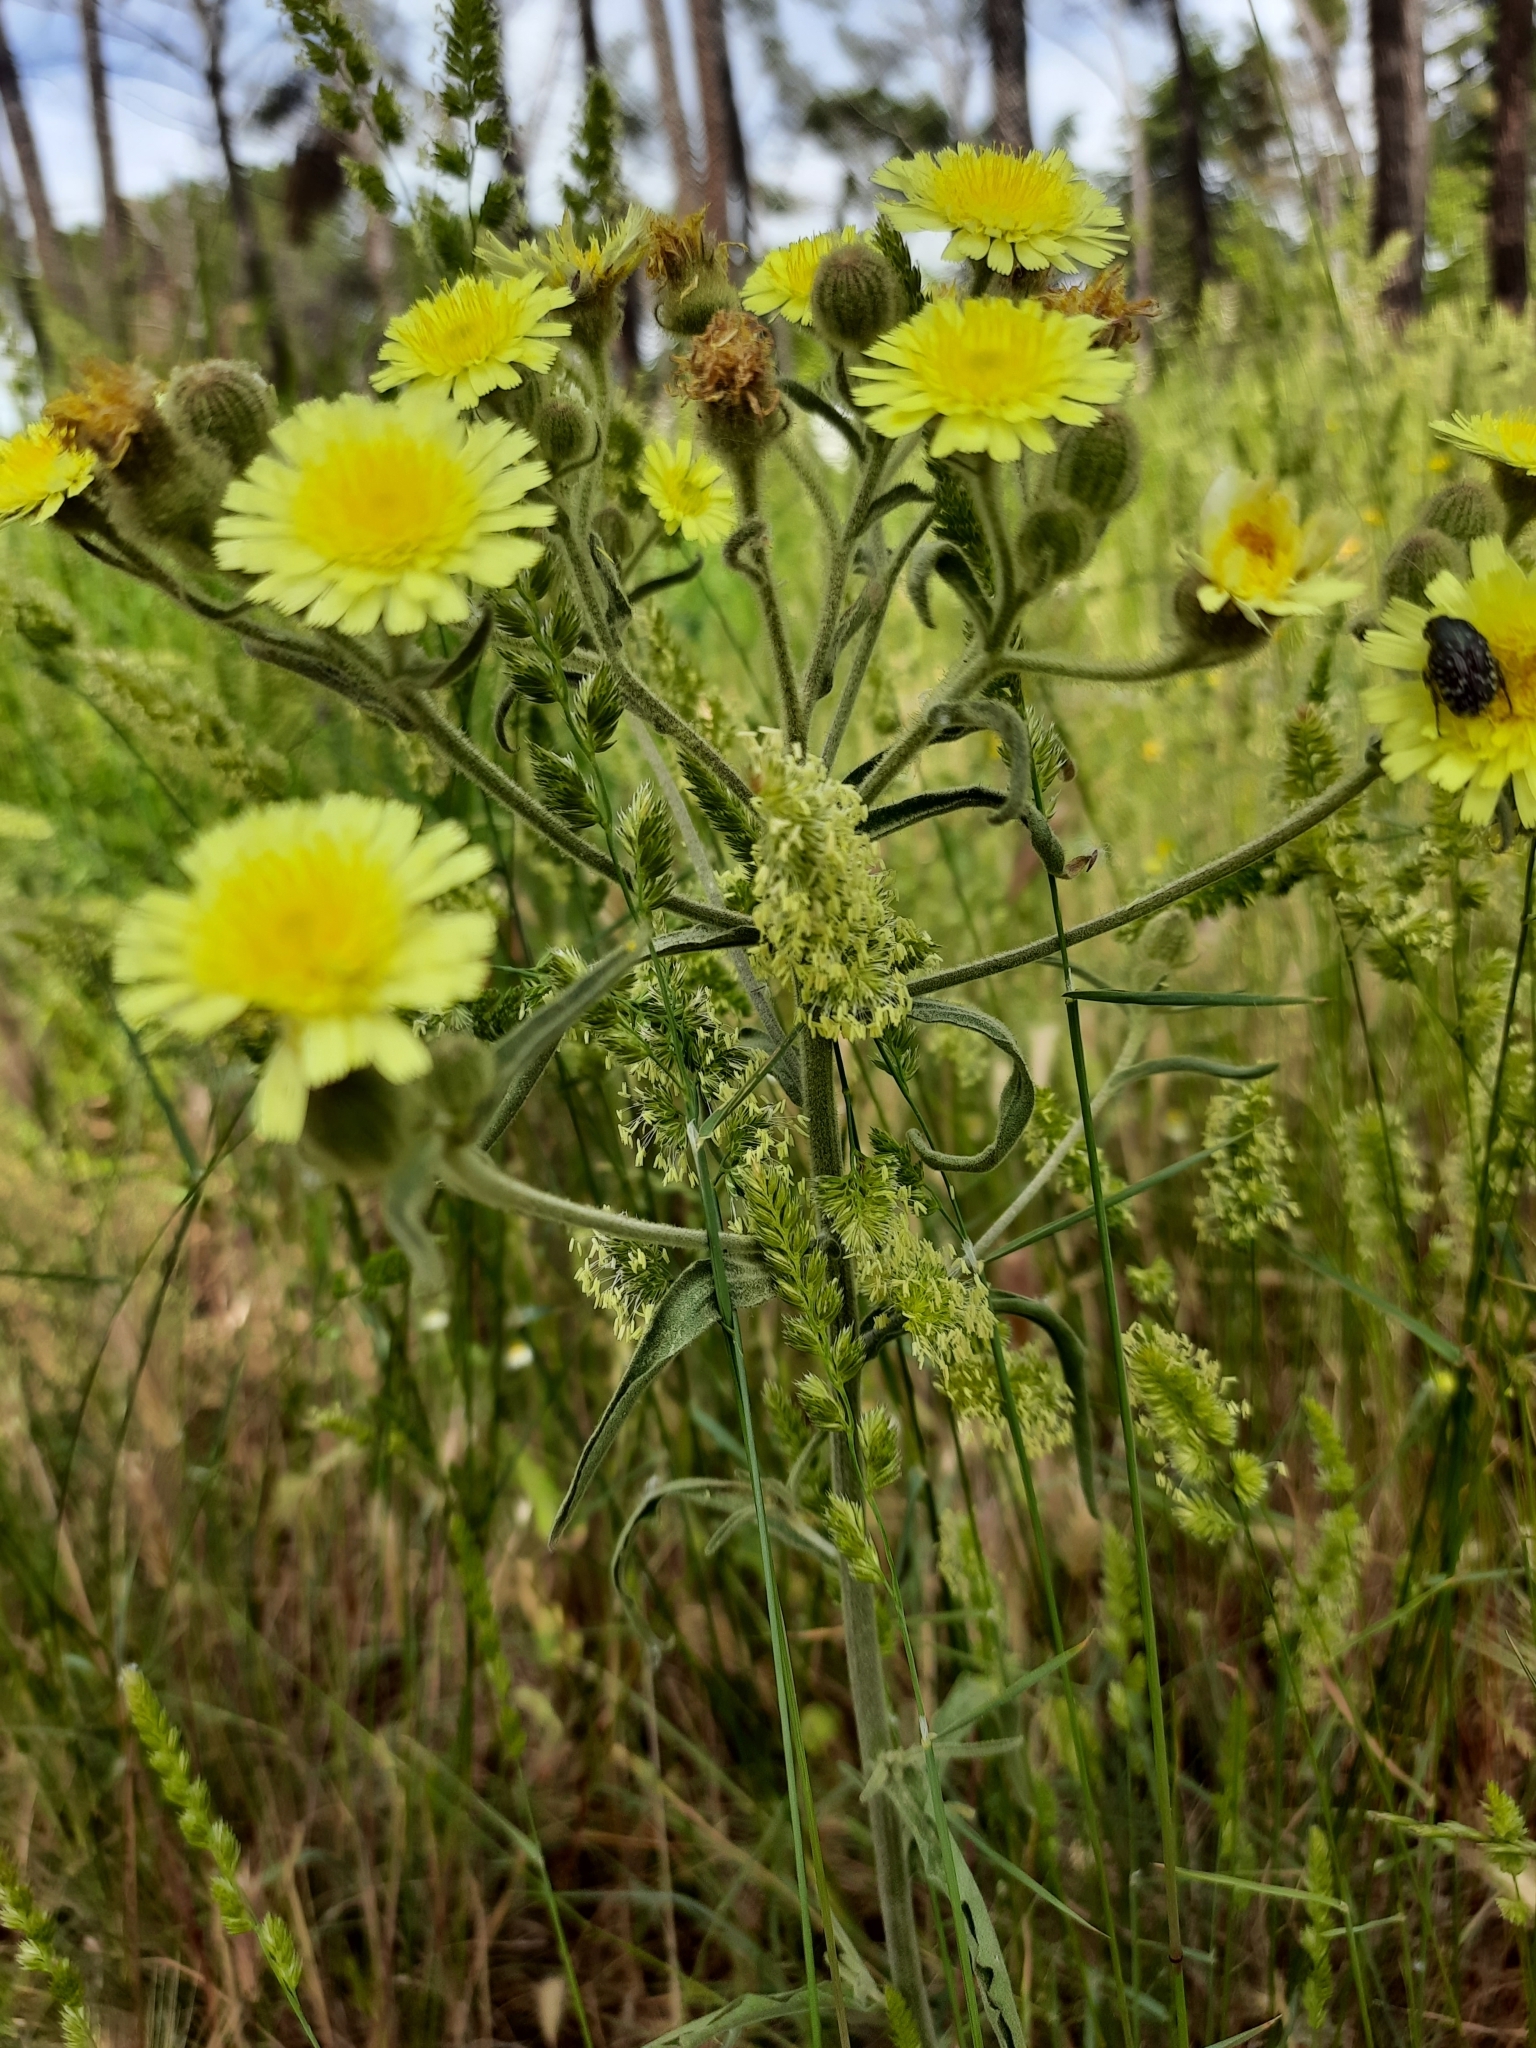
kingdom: Plantae
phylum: Tracheophyta
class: Magnoliopsida
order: Asterales
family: Asteraceae
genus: Andryala
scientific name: Andryala integrifolia
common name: Common andryala
